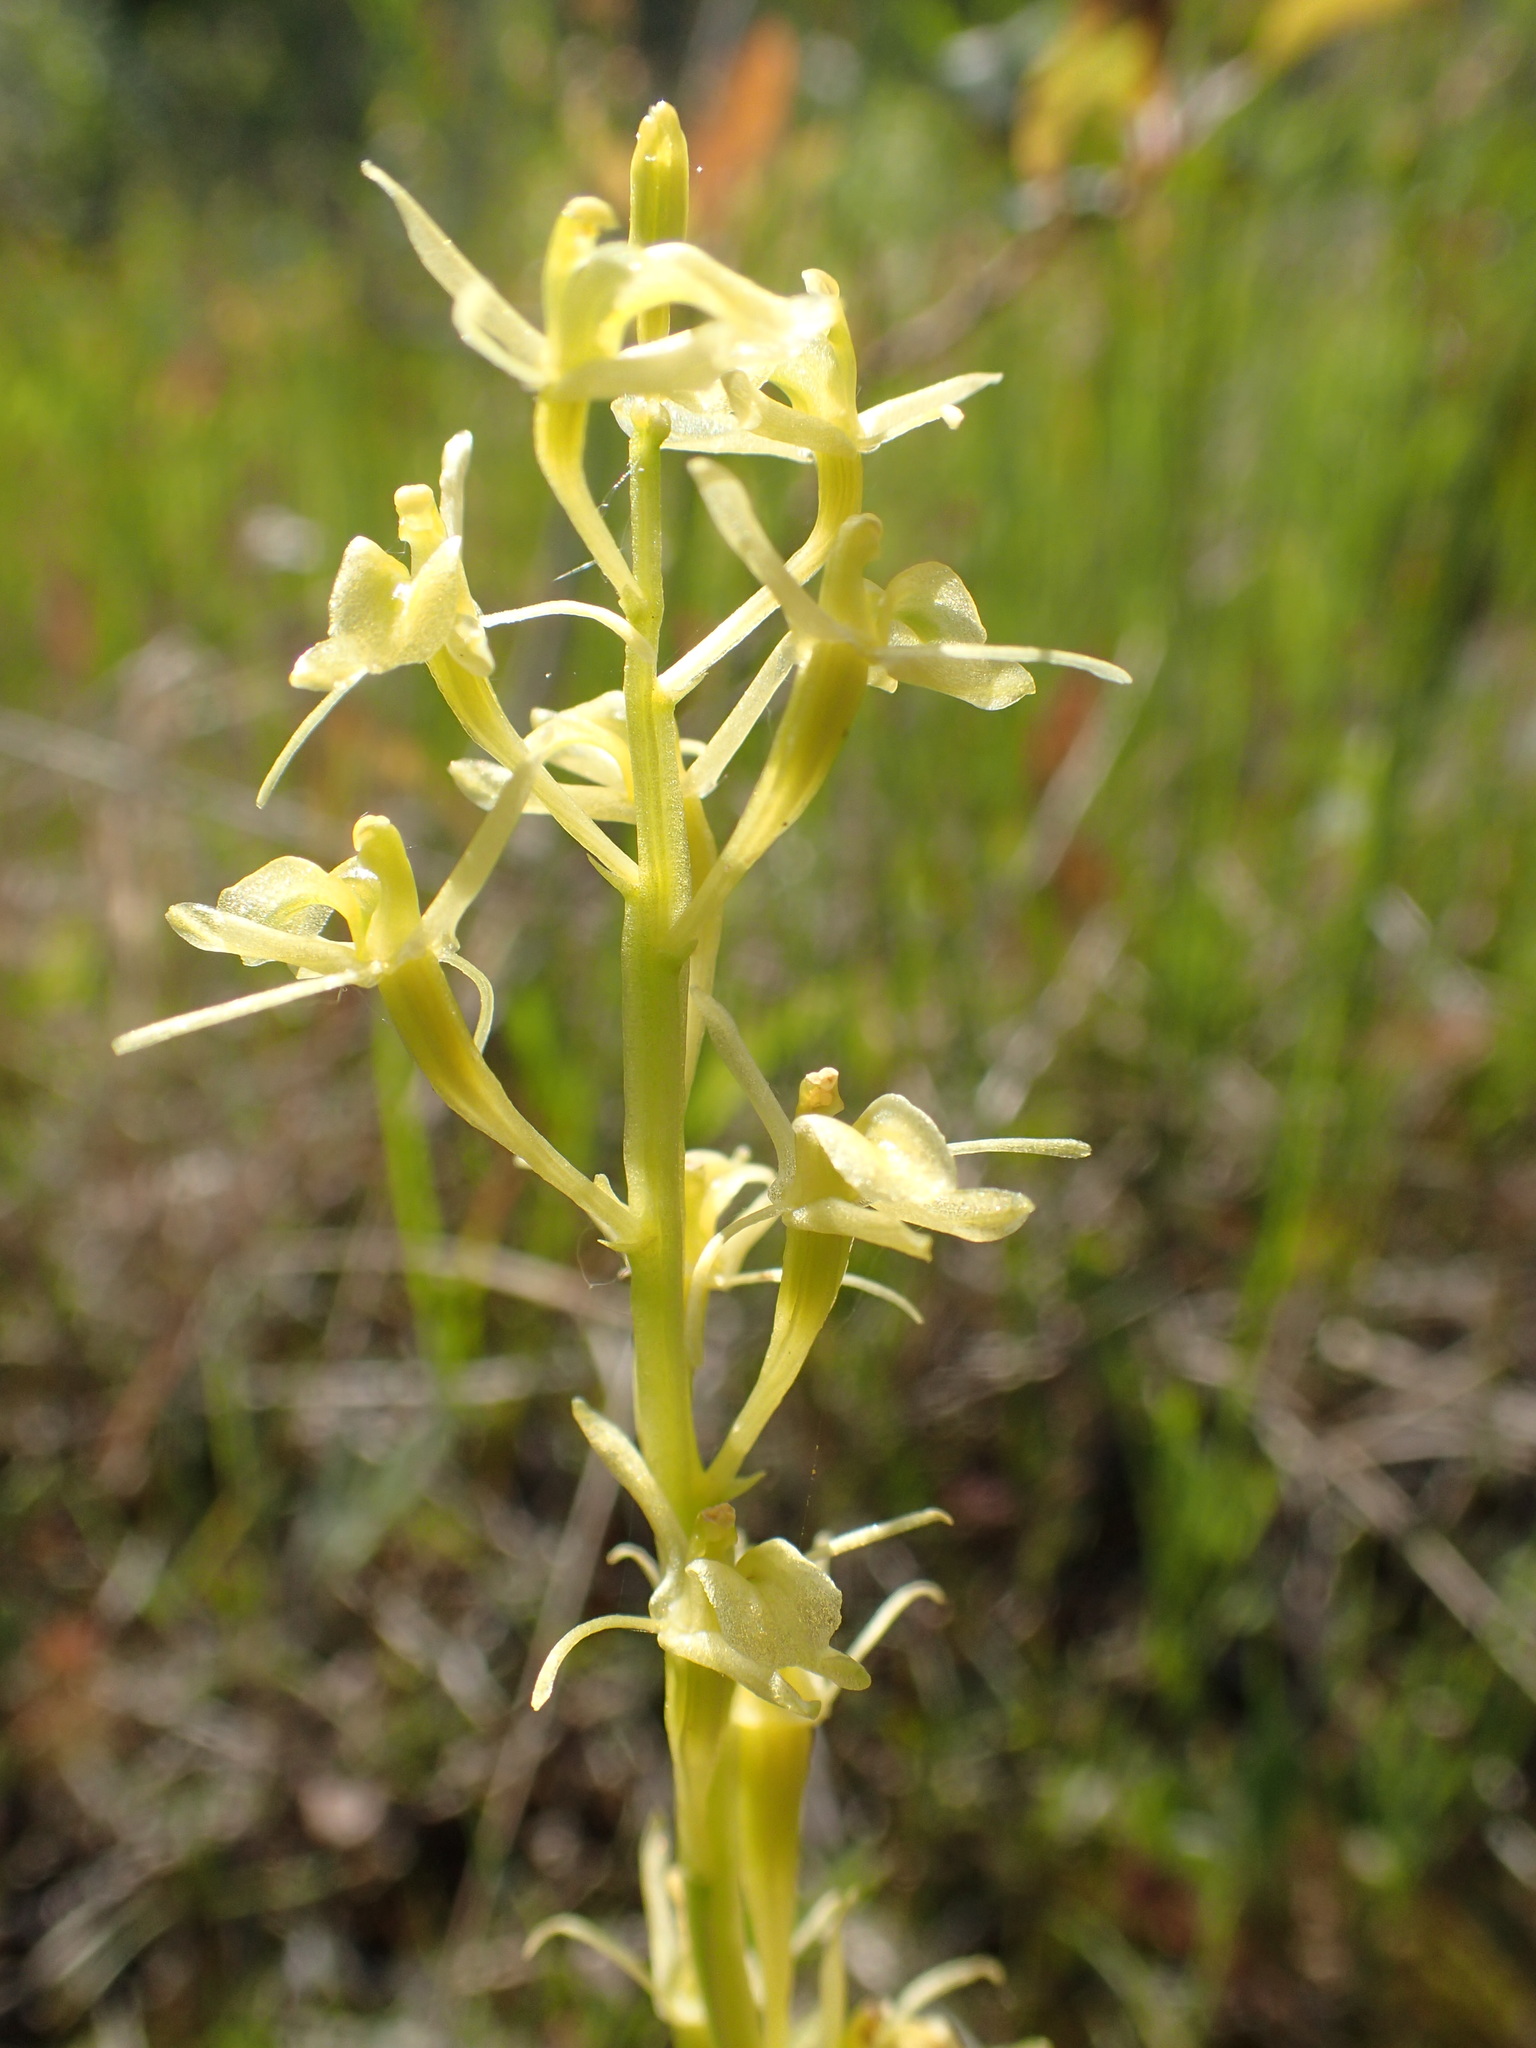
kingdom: Animalia
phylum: Arthropoda
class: Insecta
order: Coleoptera
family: Curculionidae
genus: Liparis
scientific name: Liparis loeselii
